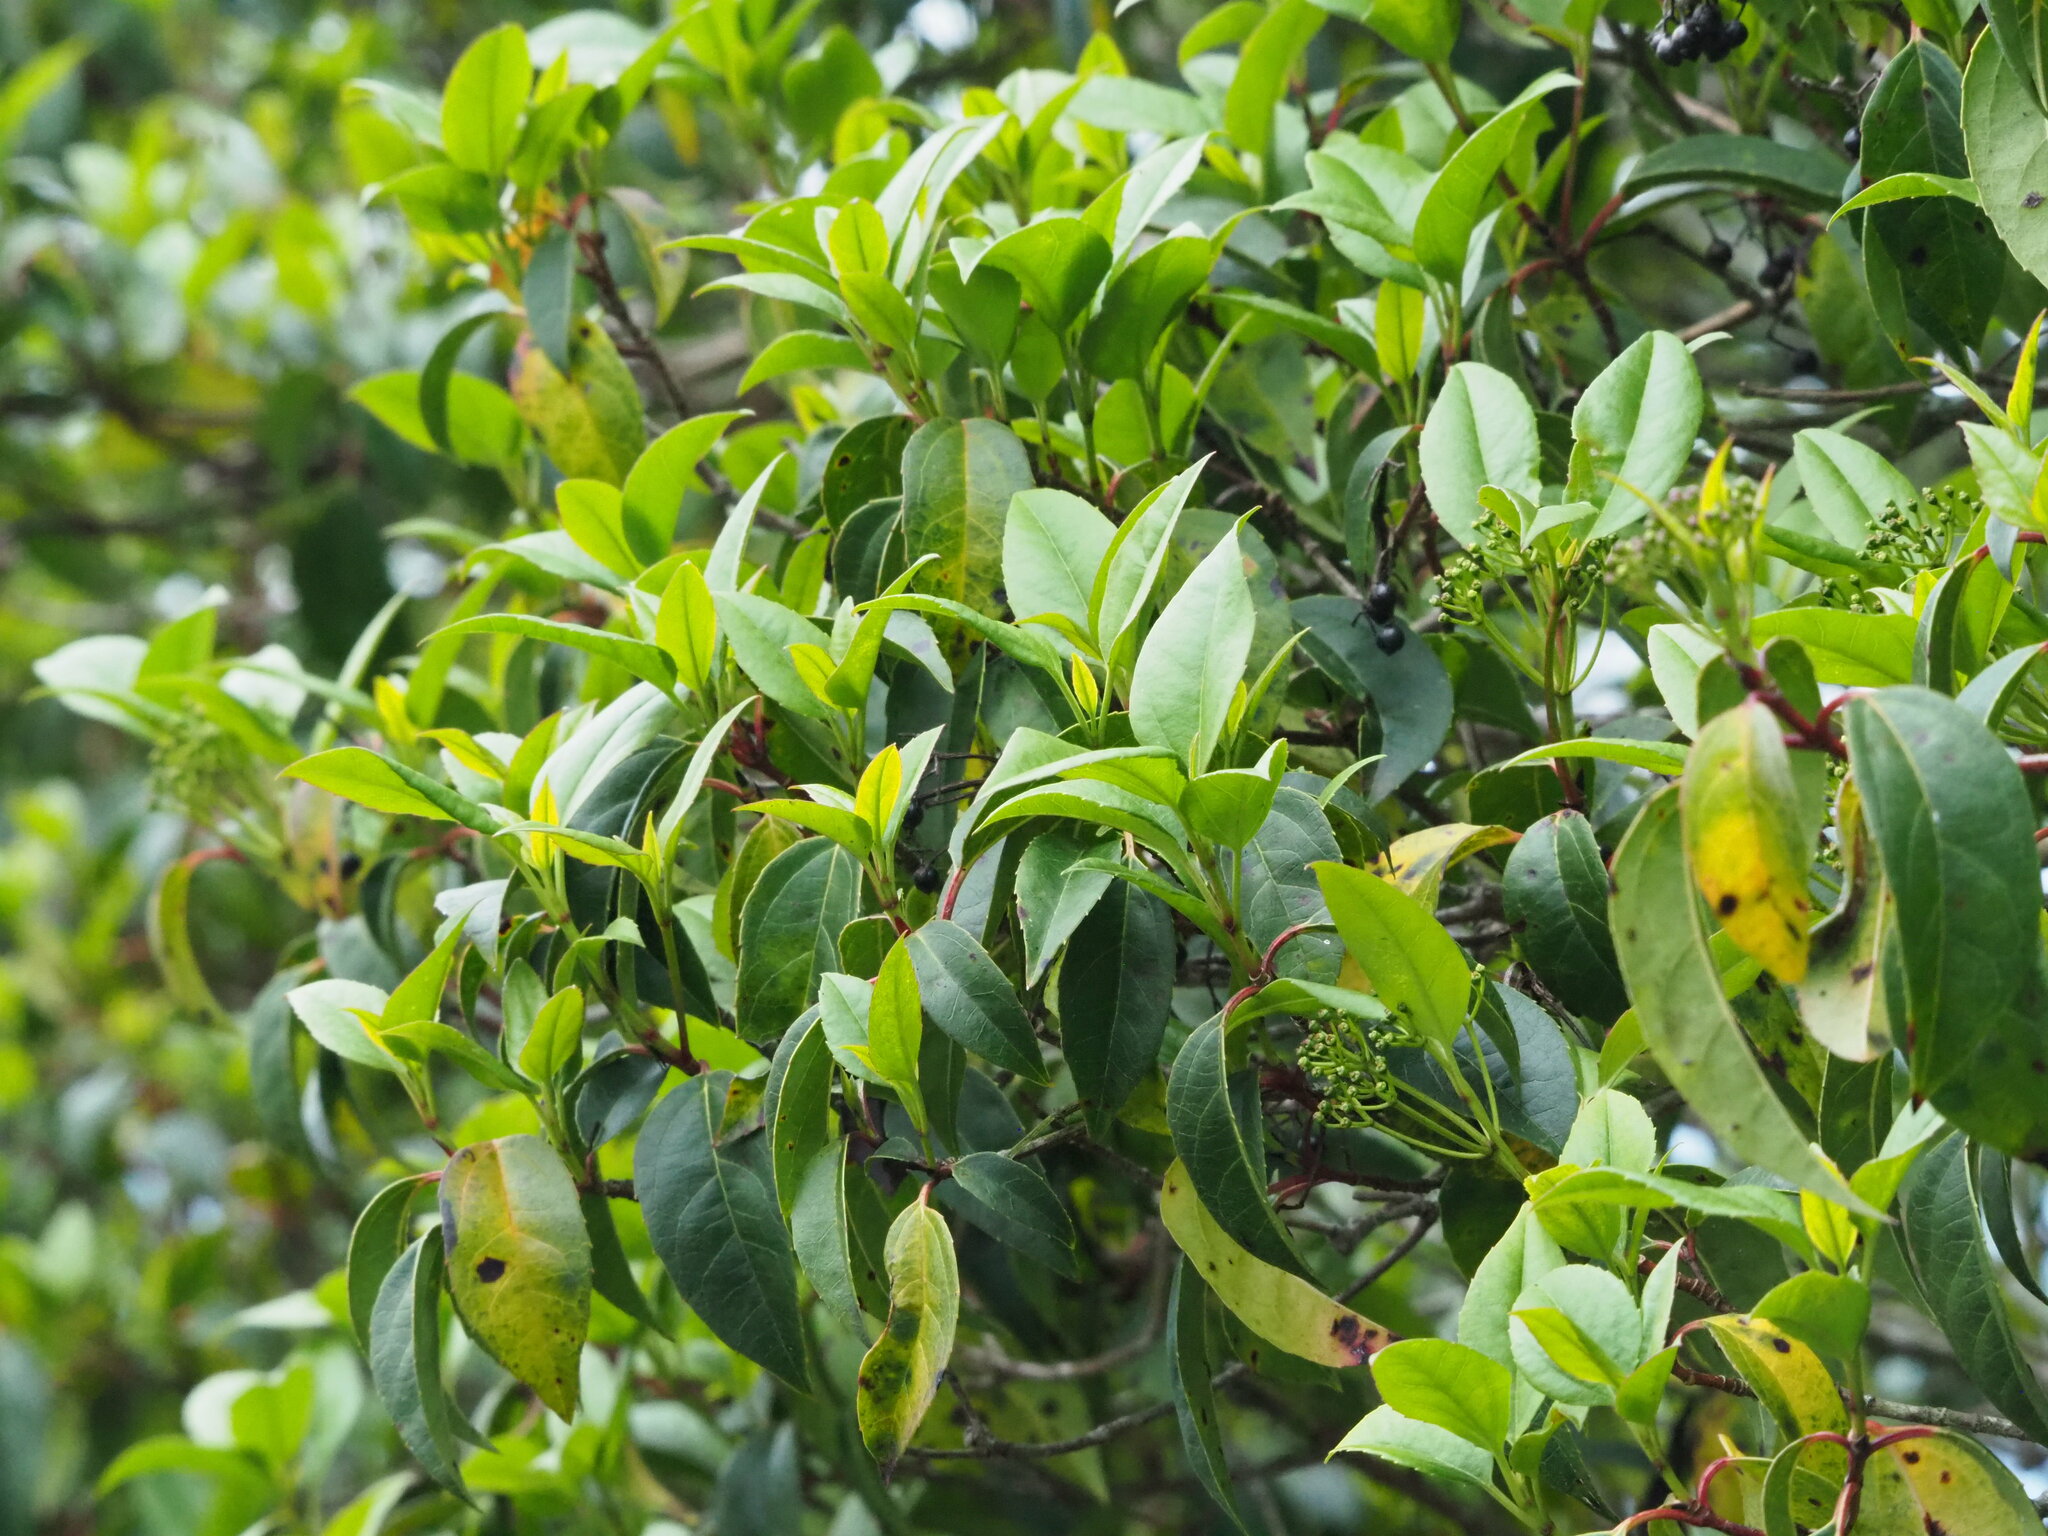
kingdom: Plantae
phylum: Tracheophyta
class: Magnoliopsida
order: Dipsacales
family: Viburnaceae
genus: Viburnum
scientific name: Viburnum propinquum
